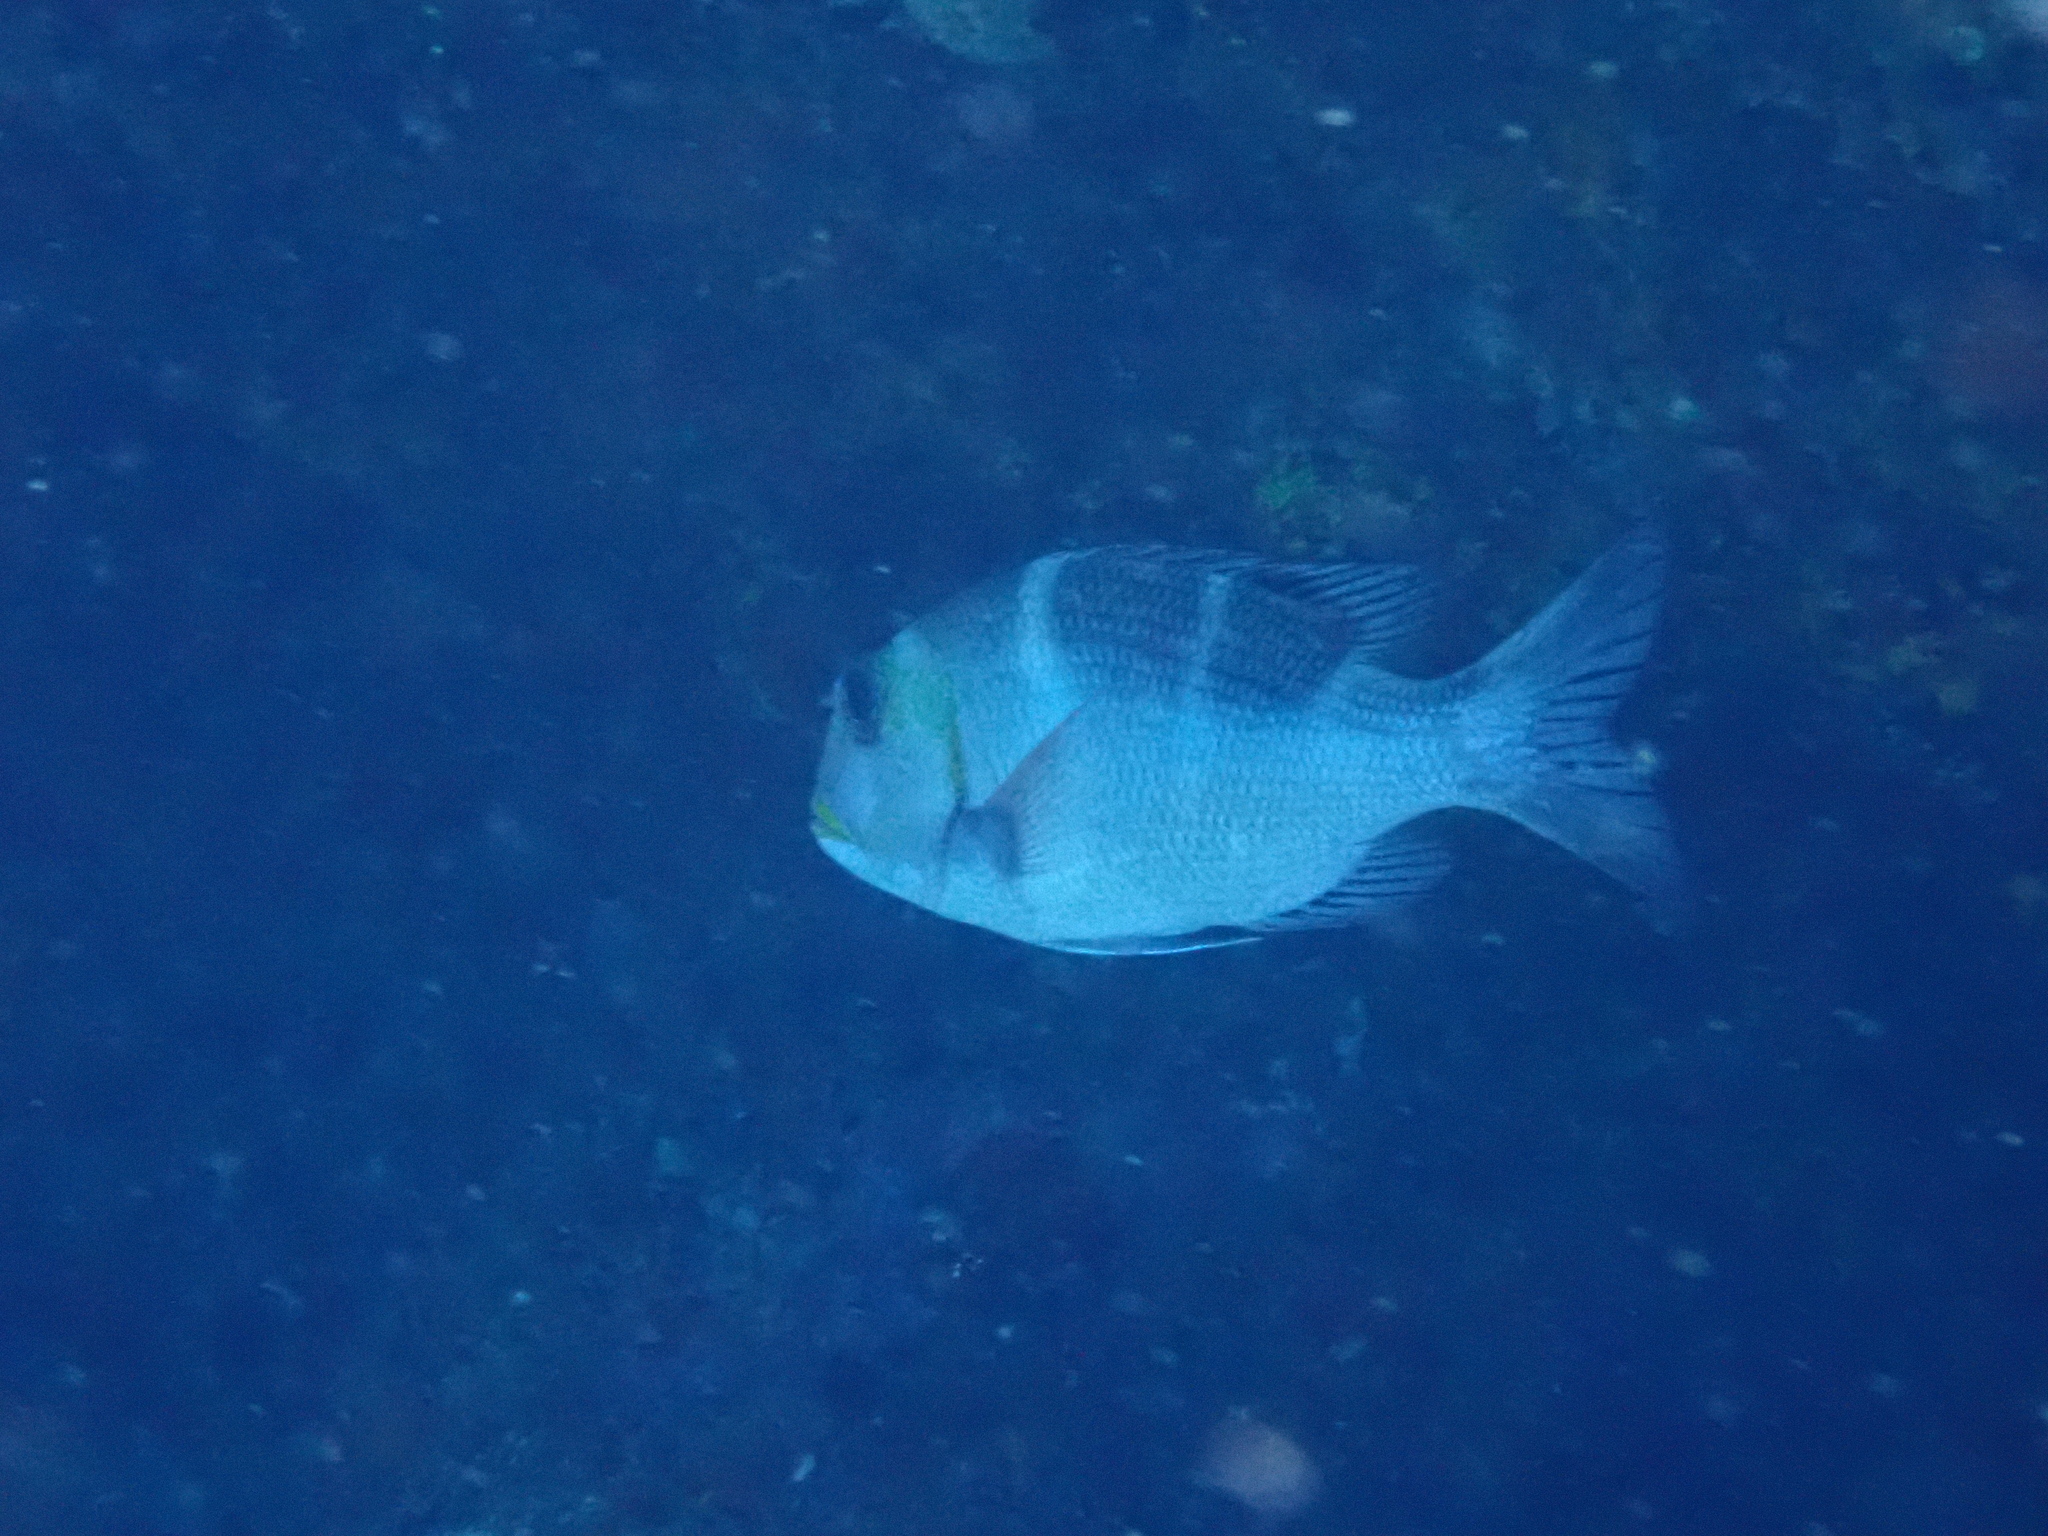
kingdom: Animalia
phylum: Chordata
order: Perciformes
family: Lethrinidae
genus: Monotaxis
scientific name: Monotaxis grandoculis
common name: Bigeye emperor
